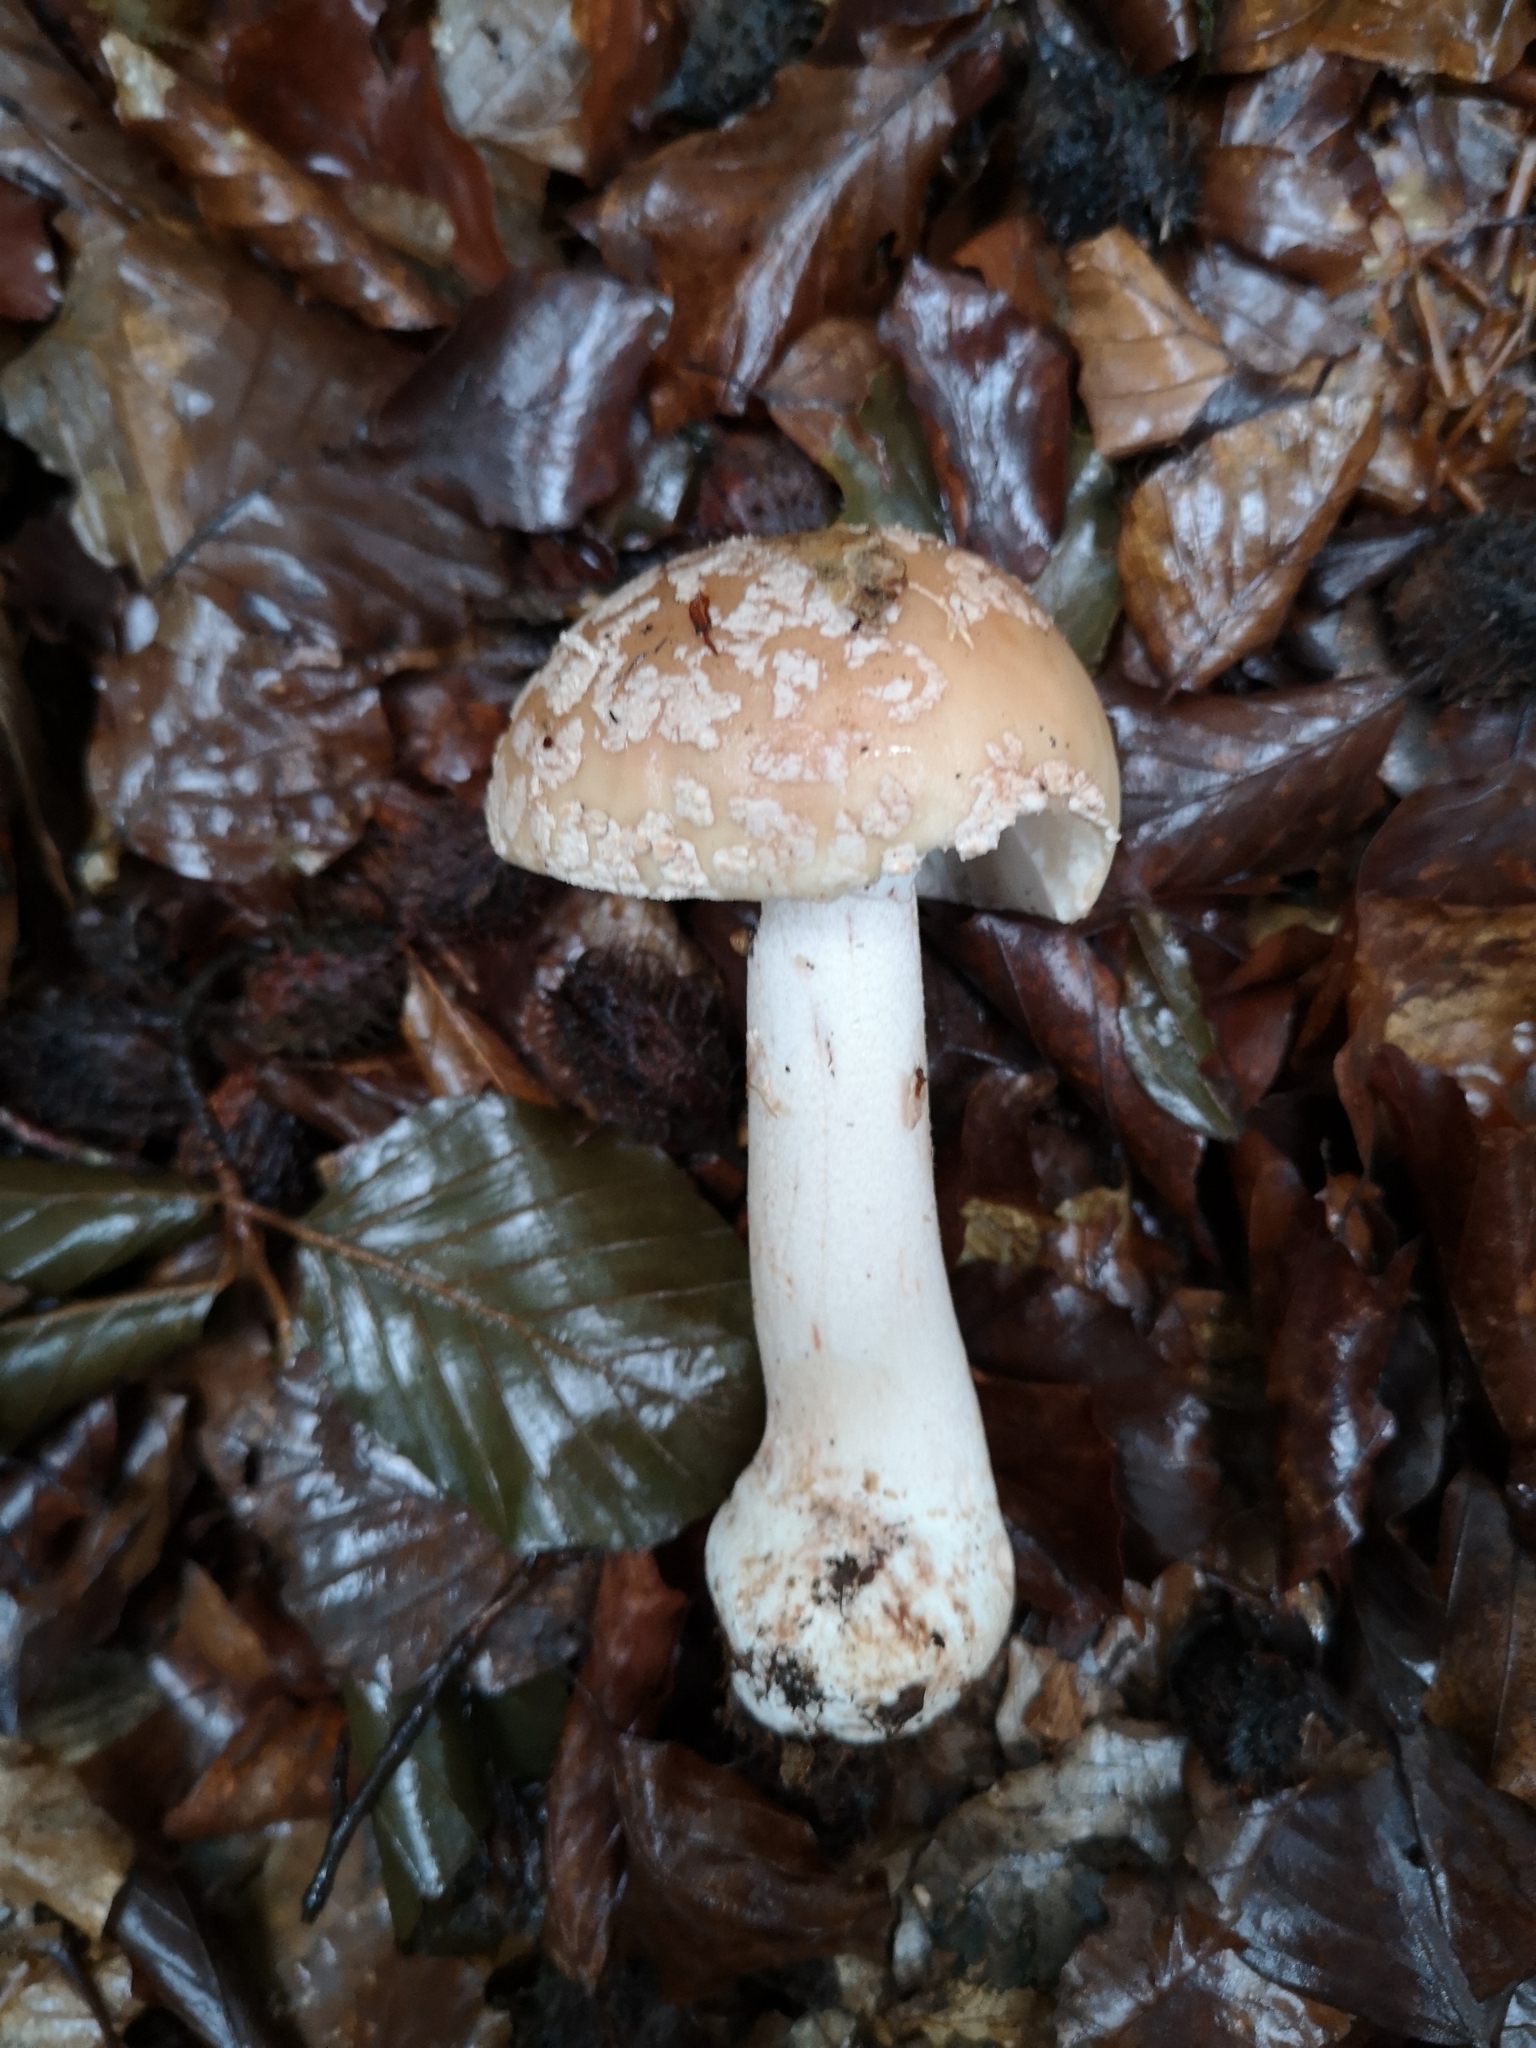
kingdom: Fungi
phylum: Basidiomycota
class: Agaricomycetes
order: Agaricales
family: Amanitaceae
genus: Amanita
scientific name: Amanita rubescens
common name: Blusher
